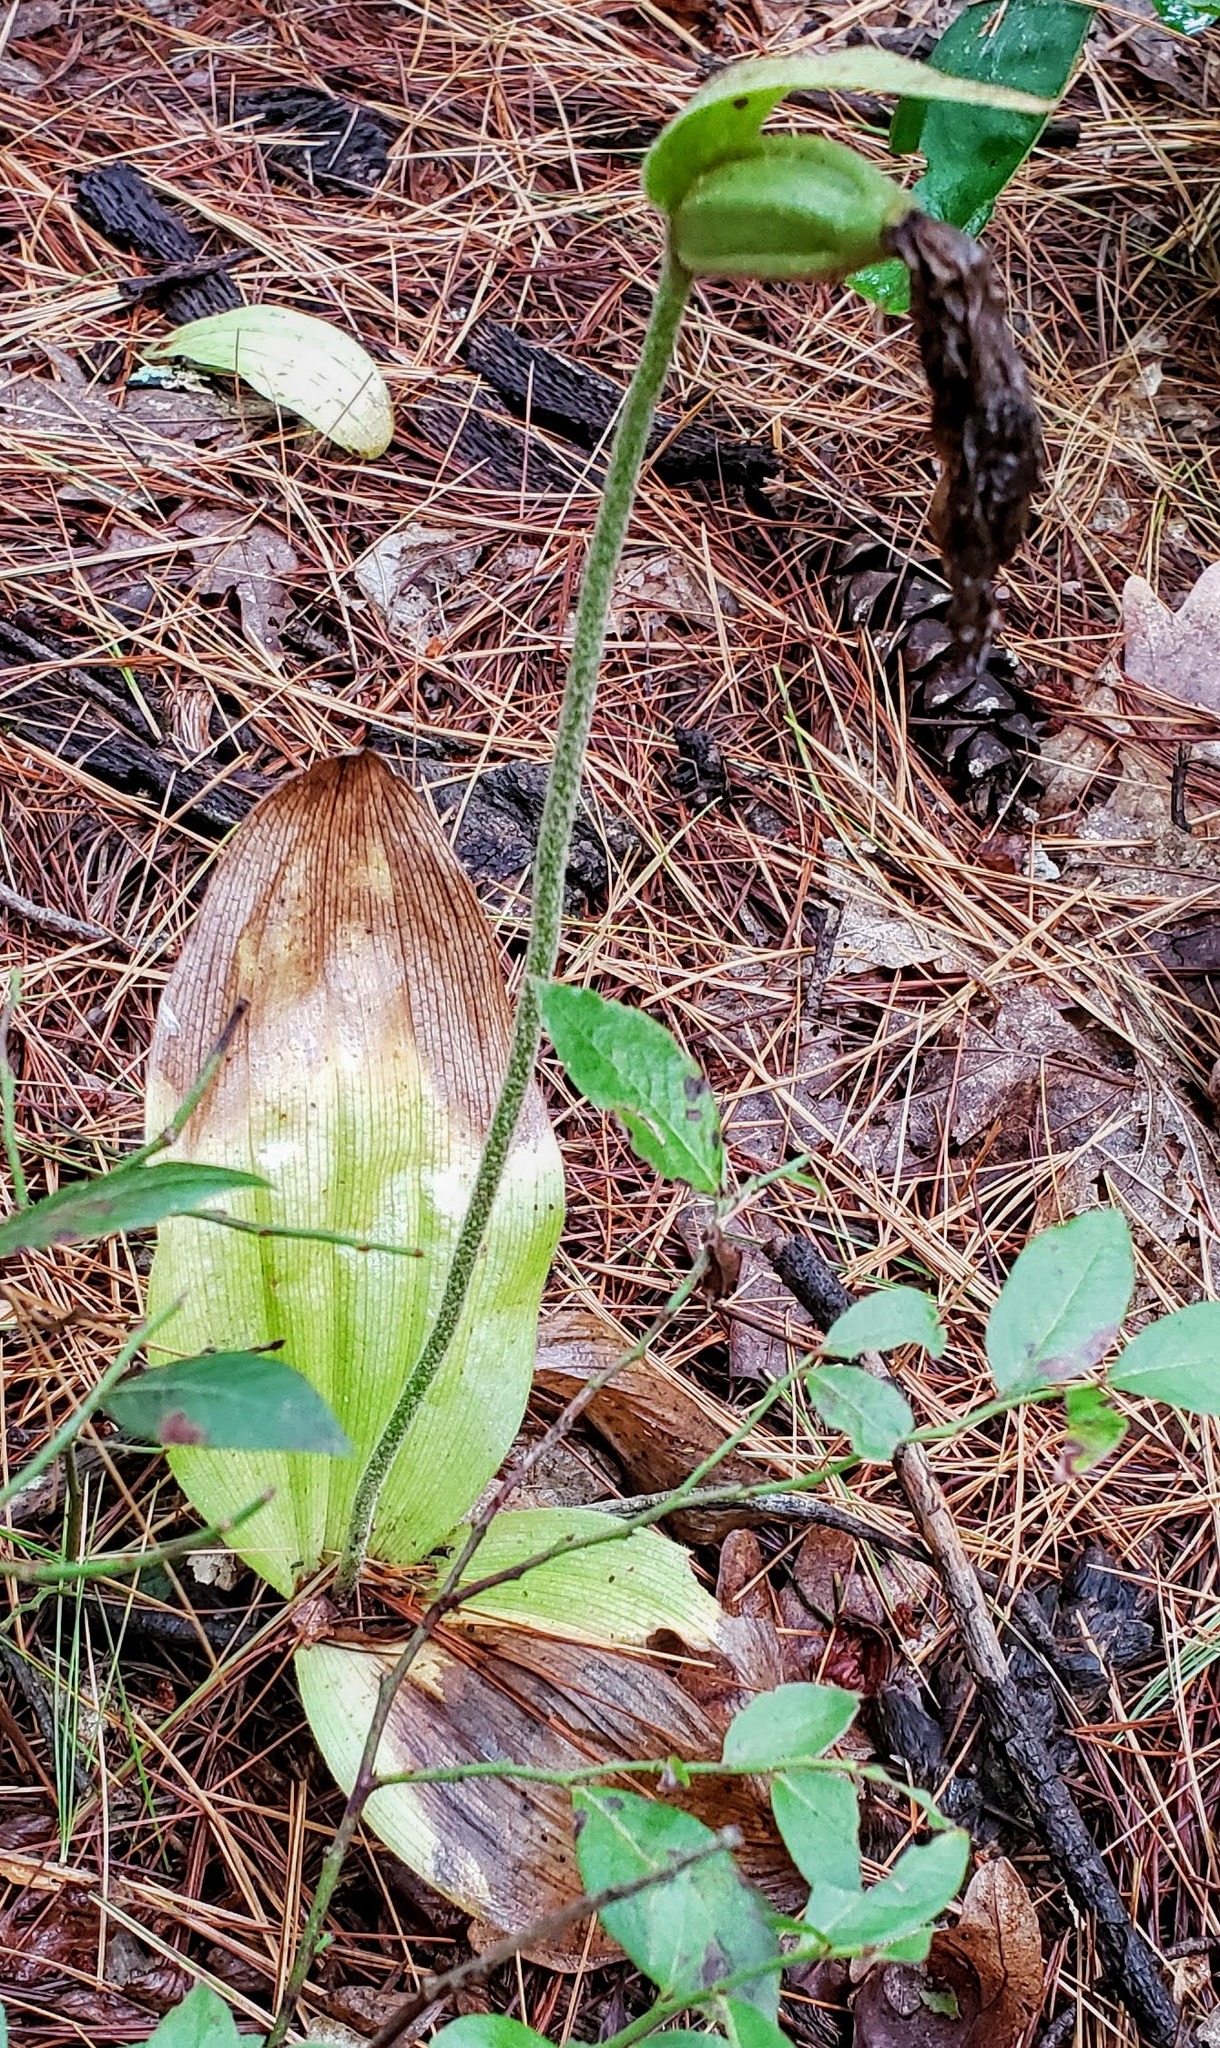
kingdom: Plantae
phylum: Tracheophyta
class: Liliopsida
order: Asparagales
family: Orchidaceae
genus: Cypripedium
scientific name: Cypripedium acaule
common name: Pink lady's-slipper
